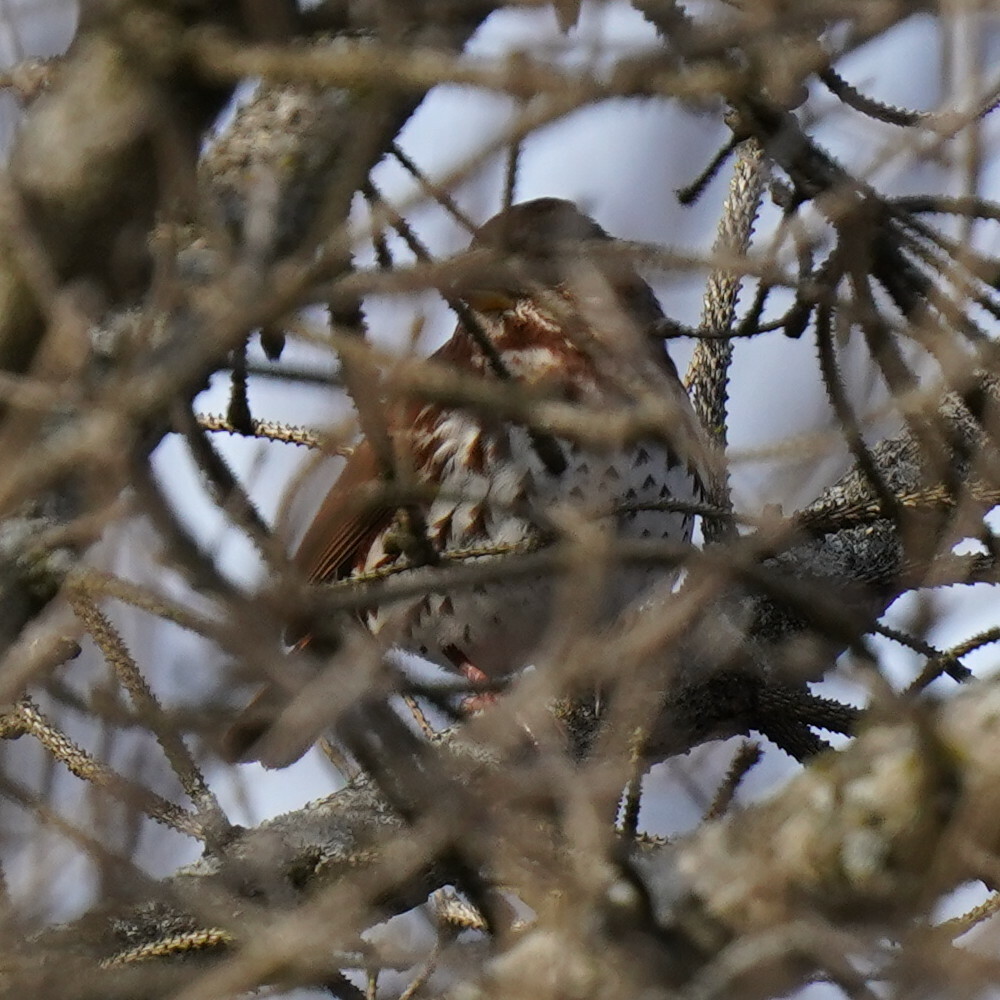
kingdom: Animalia
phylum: Chordata
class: Aves
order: Passeriformes
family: Passerellidae
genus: Passerella
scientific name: Passerella iliaca
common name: Fox sparrow
